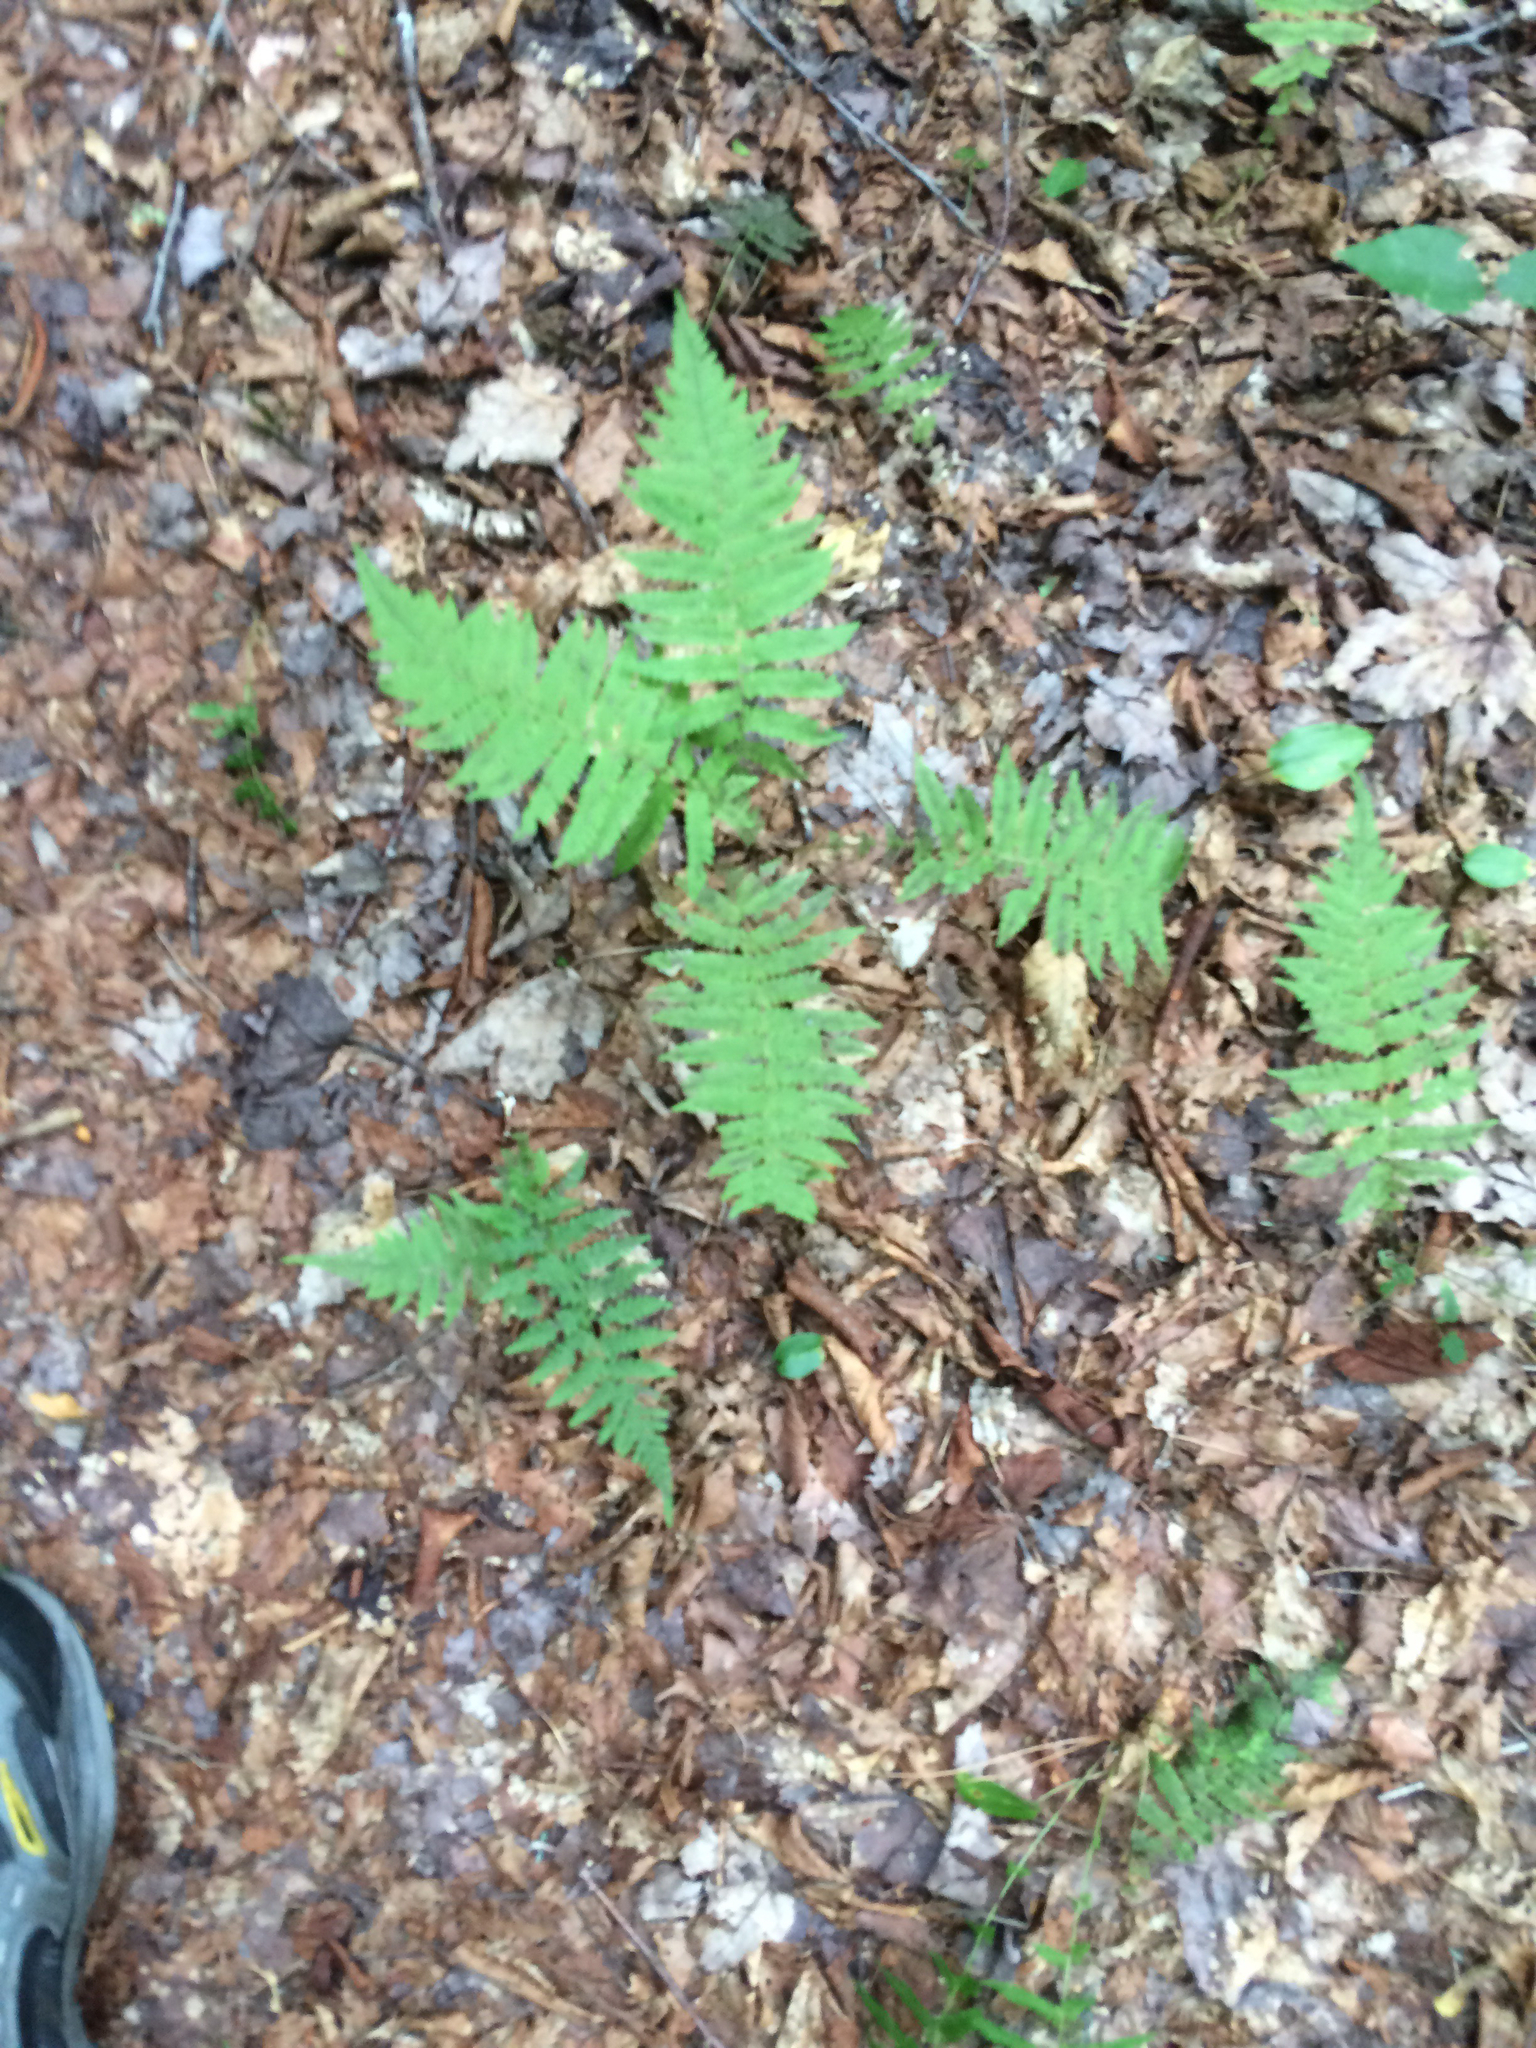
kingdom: Plantae
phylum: Tracheophyta
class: Polypodiopsida
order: Polypodiales
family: Thelypteridaceae
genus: Amauropelta
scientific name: Amauropelta noveboracensis
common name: New york fern
